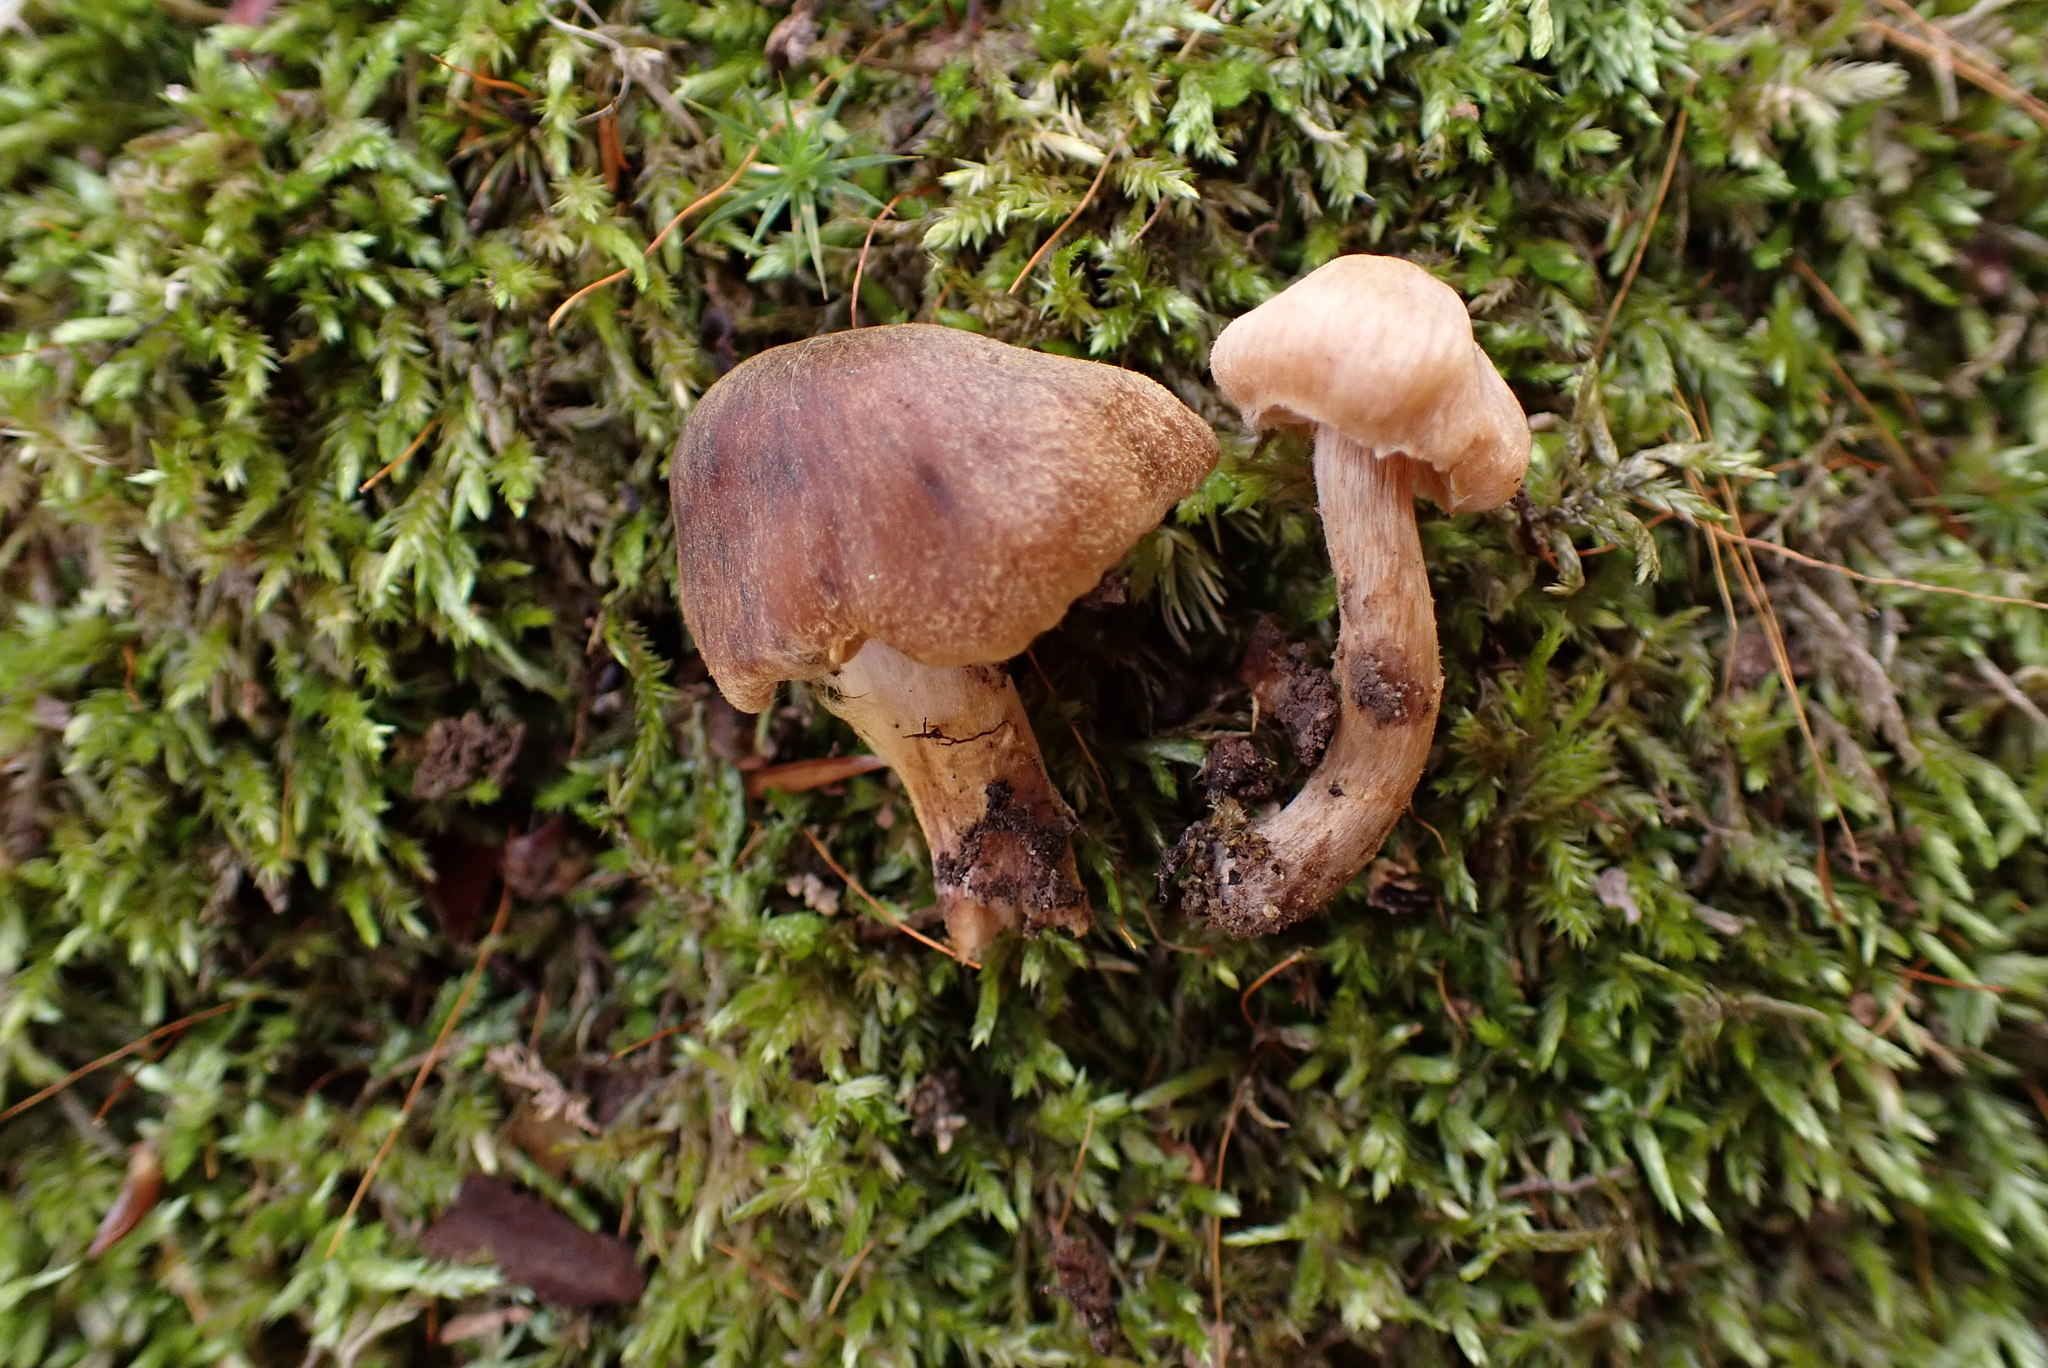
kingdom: Fungi
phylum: Basidiomycota
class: Agaricomycetes
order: Agaricales
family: Cortinariaceae
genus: Cortinarius
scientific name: Cortinarius aureovelatus
